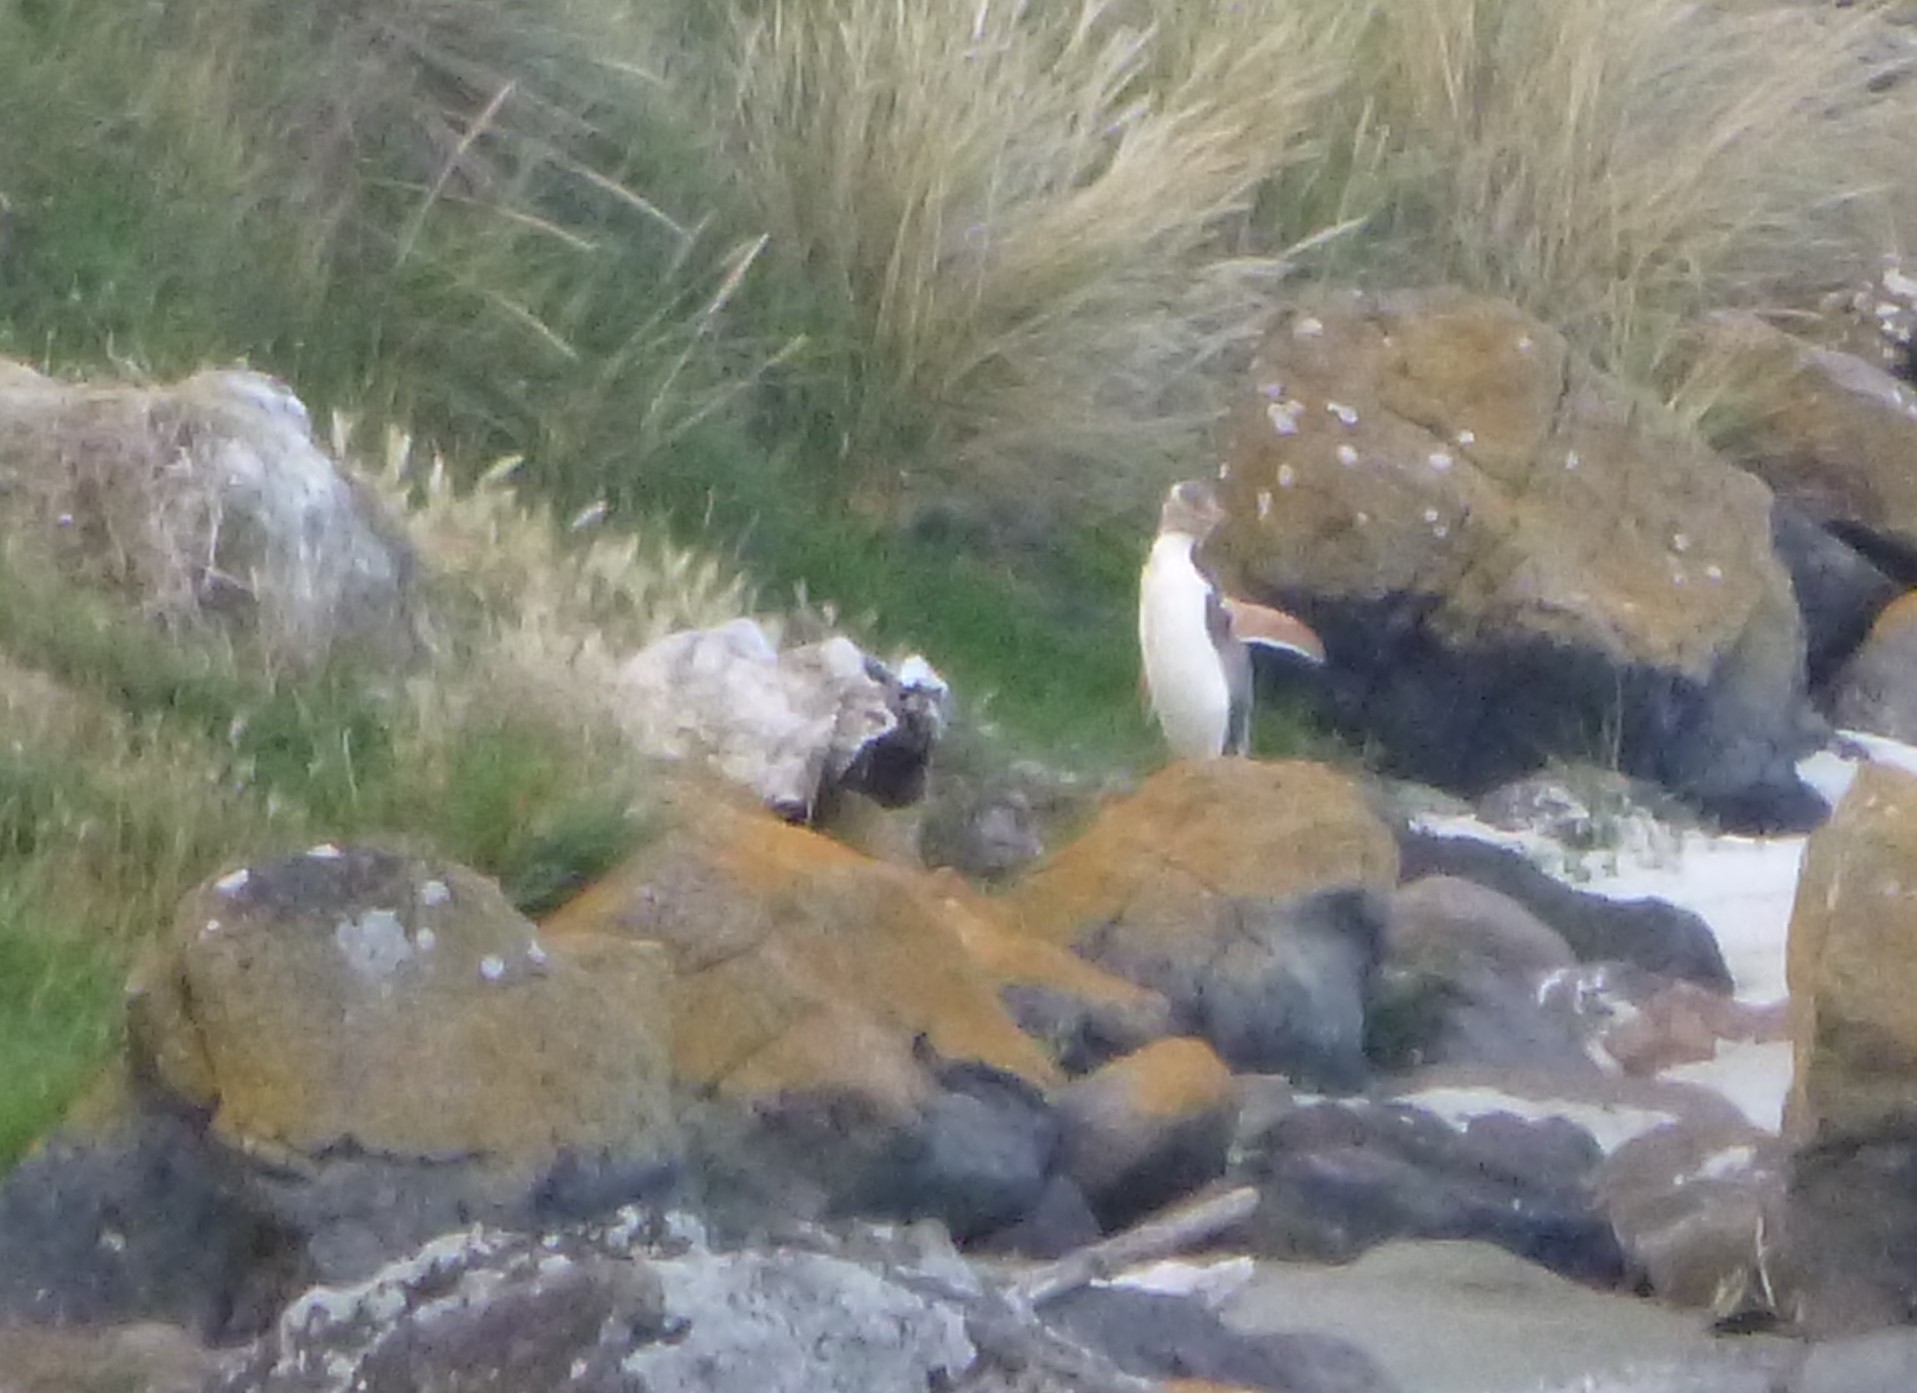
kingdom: Animalia
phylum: Chordata
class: Aves
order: Sphenisciformes
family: Spheniscidae
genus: Megadyptes
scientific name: Megadyptes antipodes
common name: Yellow-eyed penguin
